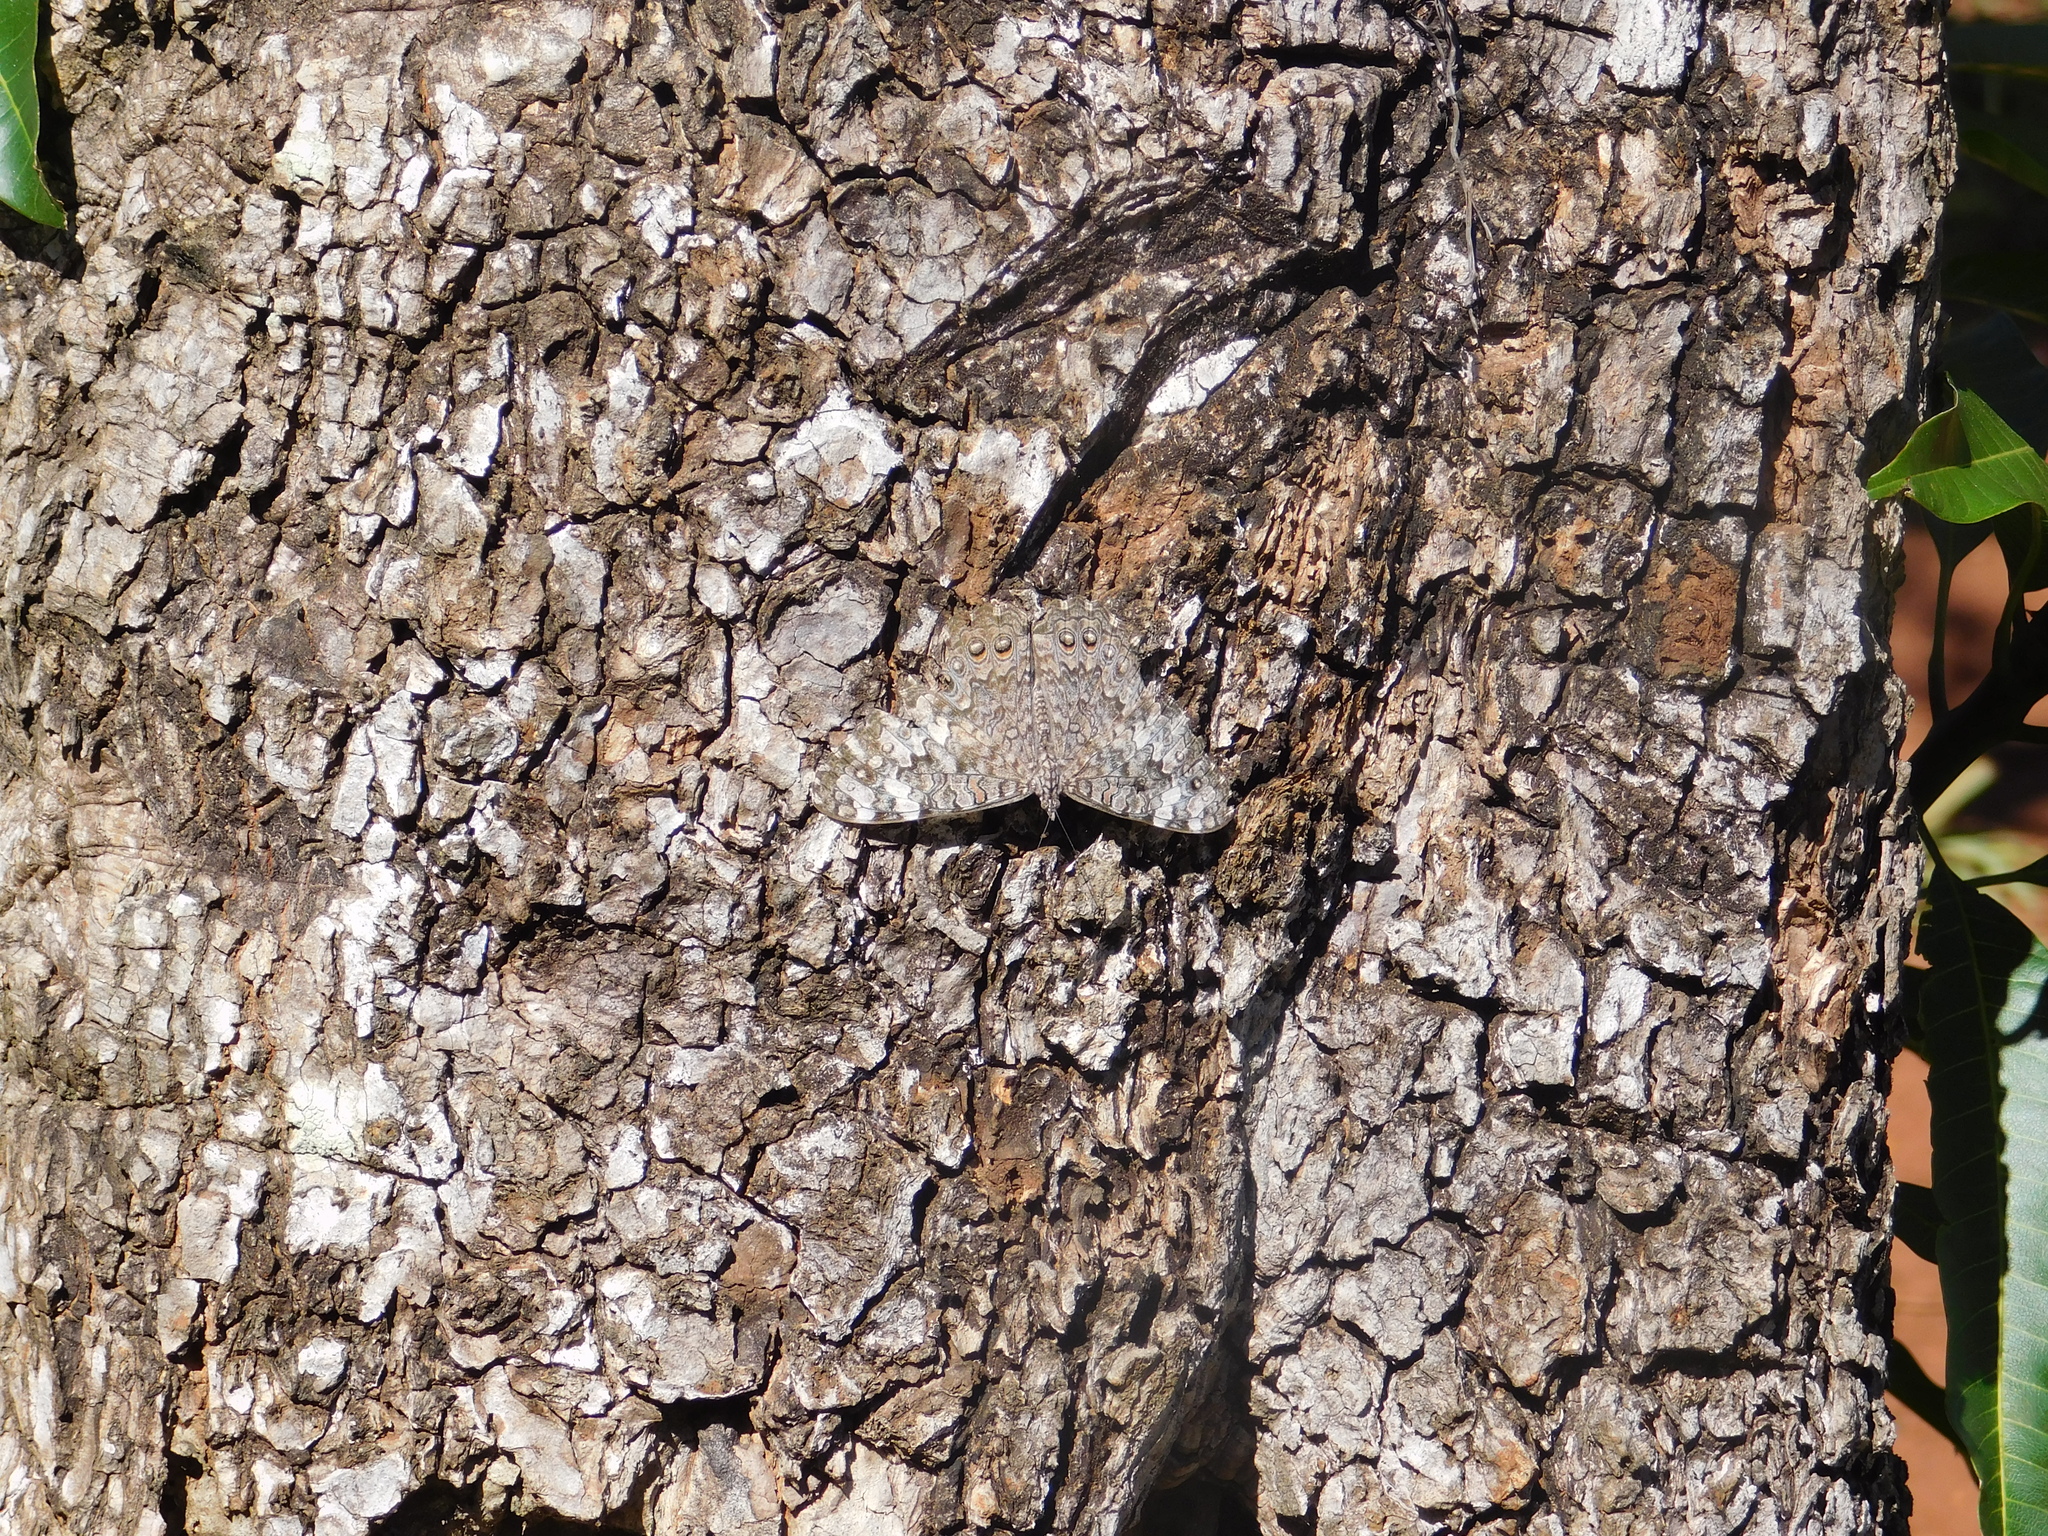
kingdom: Animalia
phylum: Arthropoda
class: Insecta
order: Lepidoptera
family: Nymphalidae
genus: Hamadryas
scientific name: Hamadryas februa
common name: Gray cracker
